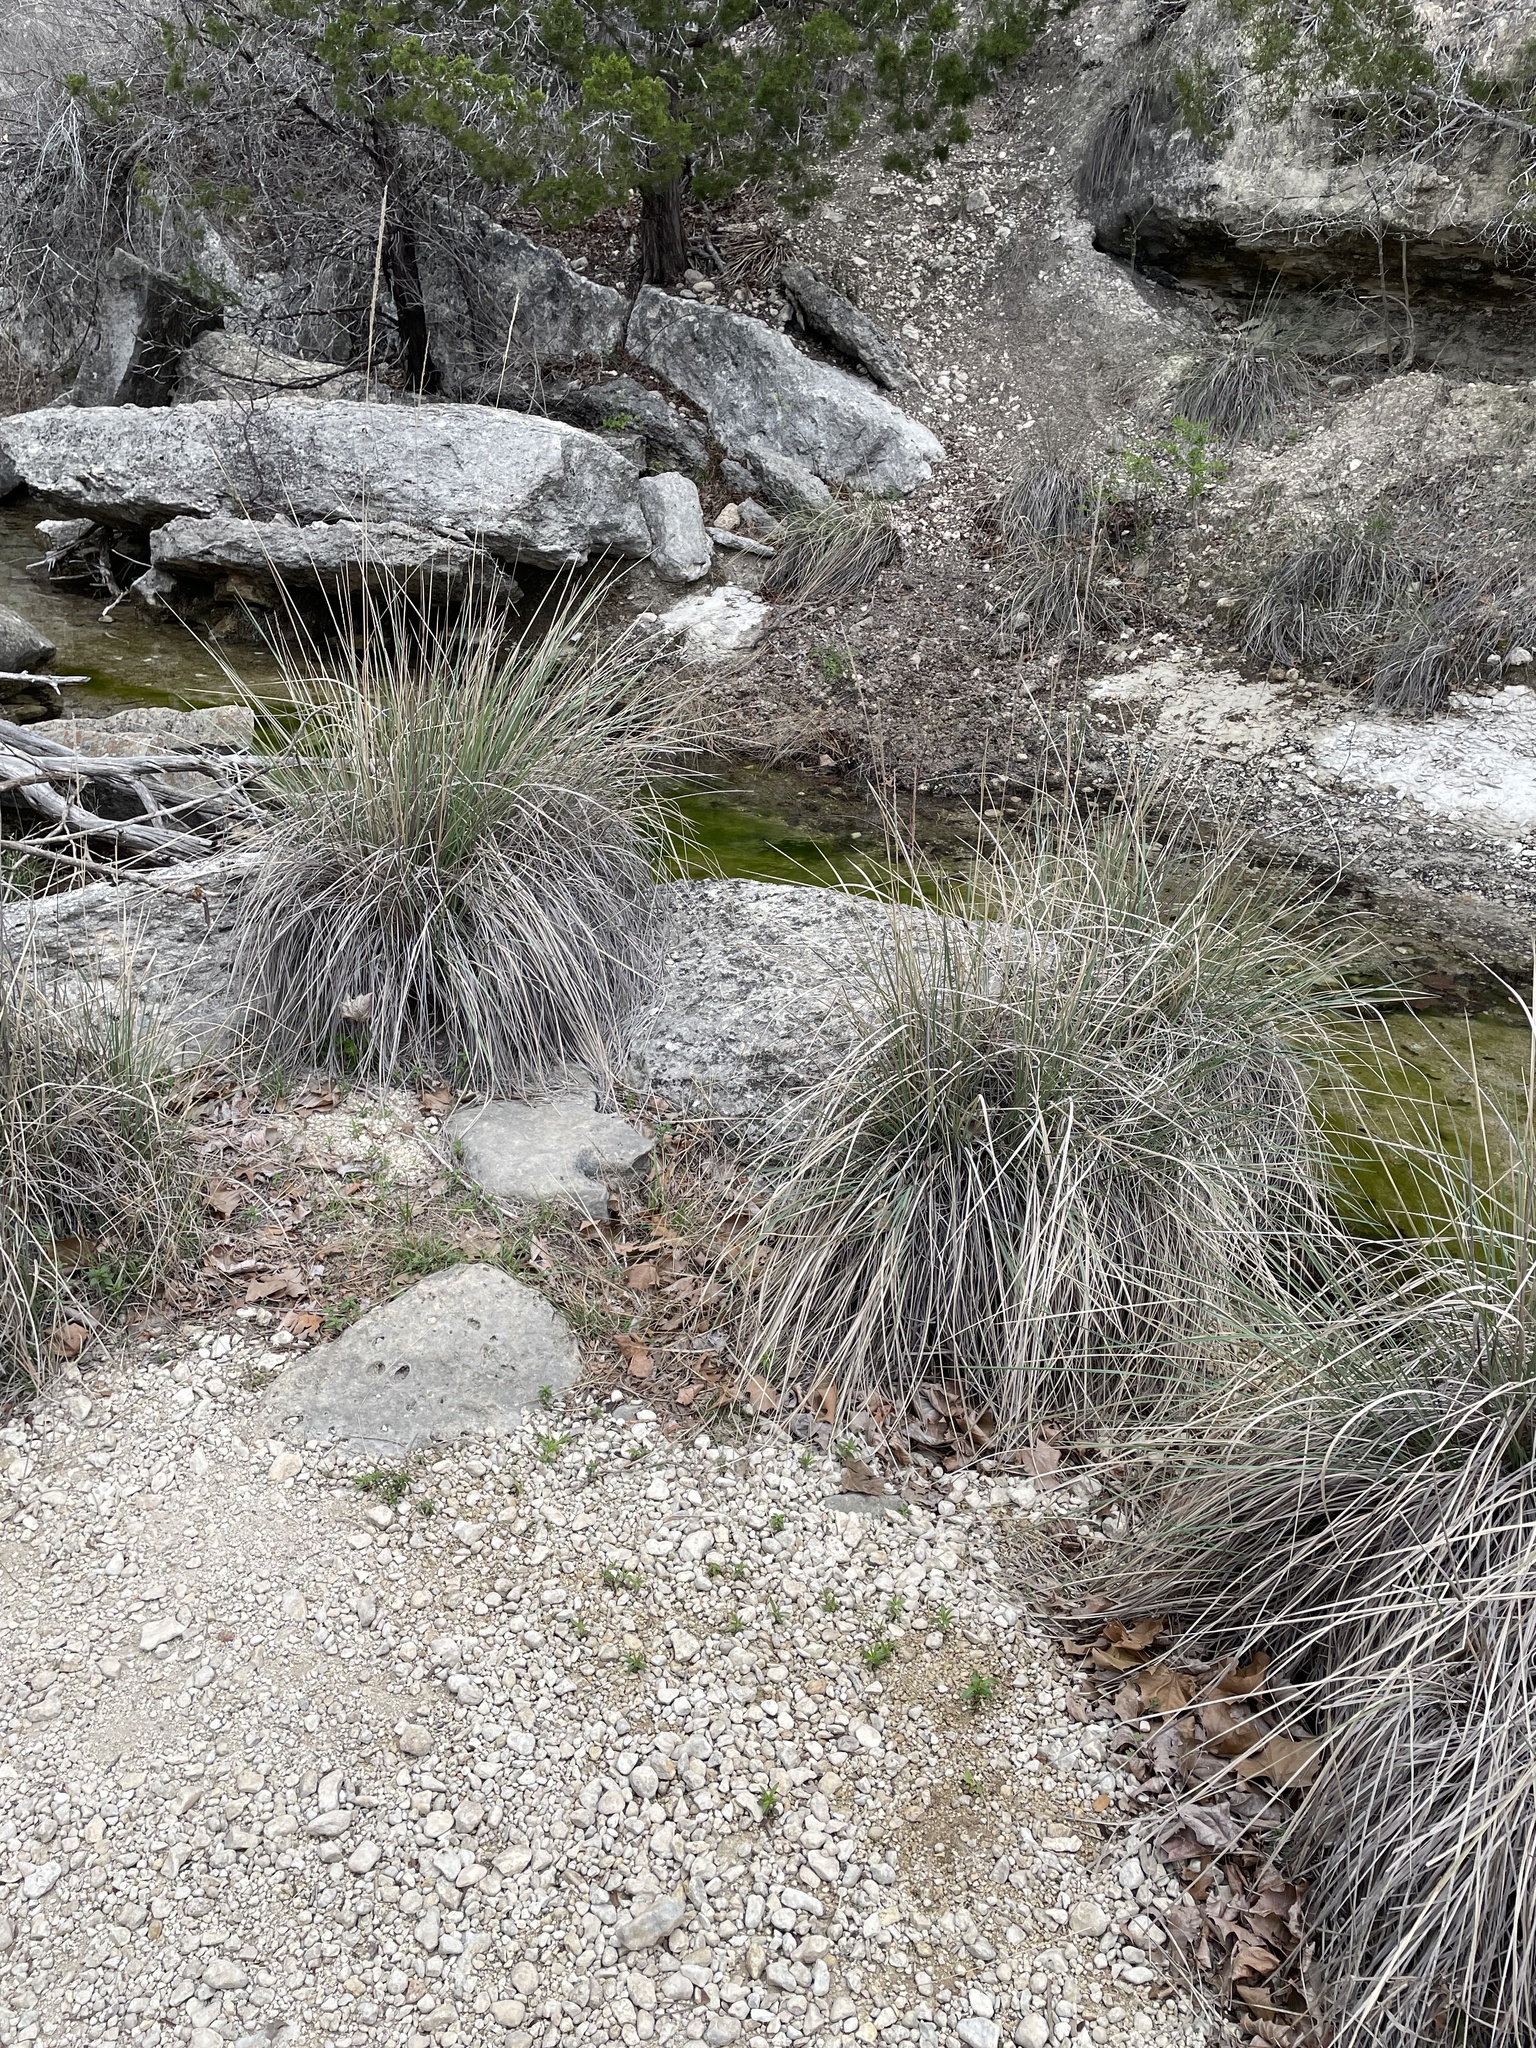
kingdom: Plantae
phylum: Tracheophyta
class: Liliopsida
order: Poales
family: Poaceae
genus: Muhlenbergia
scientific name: Muhlenbergia lindheimeri
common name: Lindheimer's muhly
